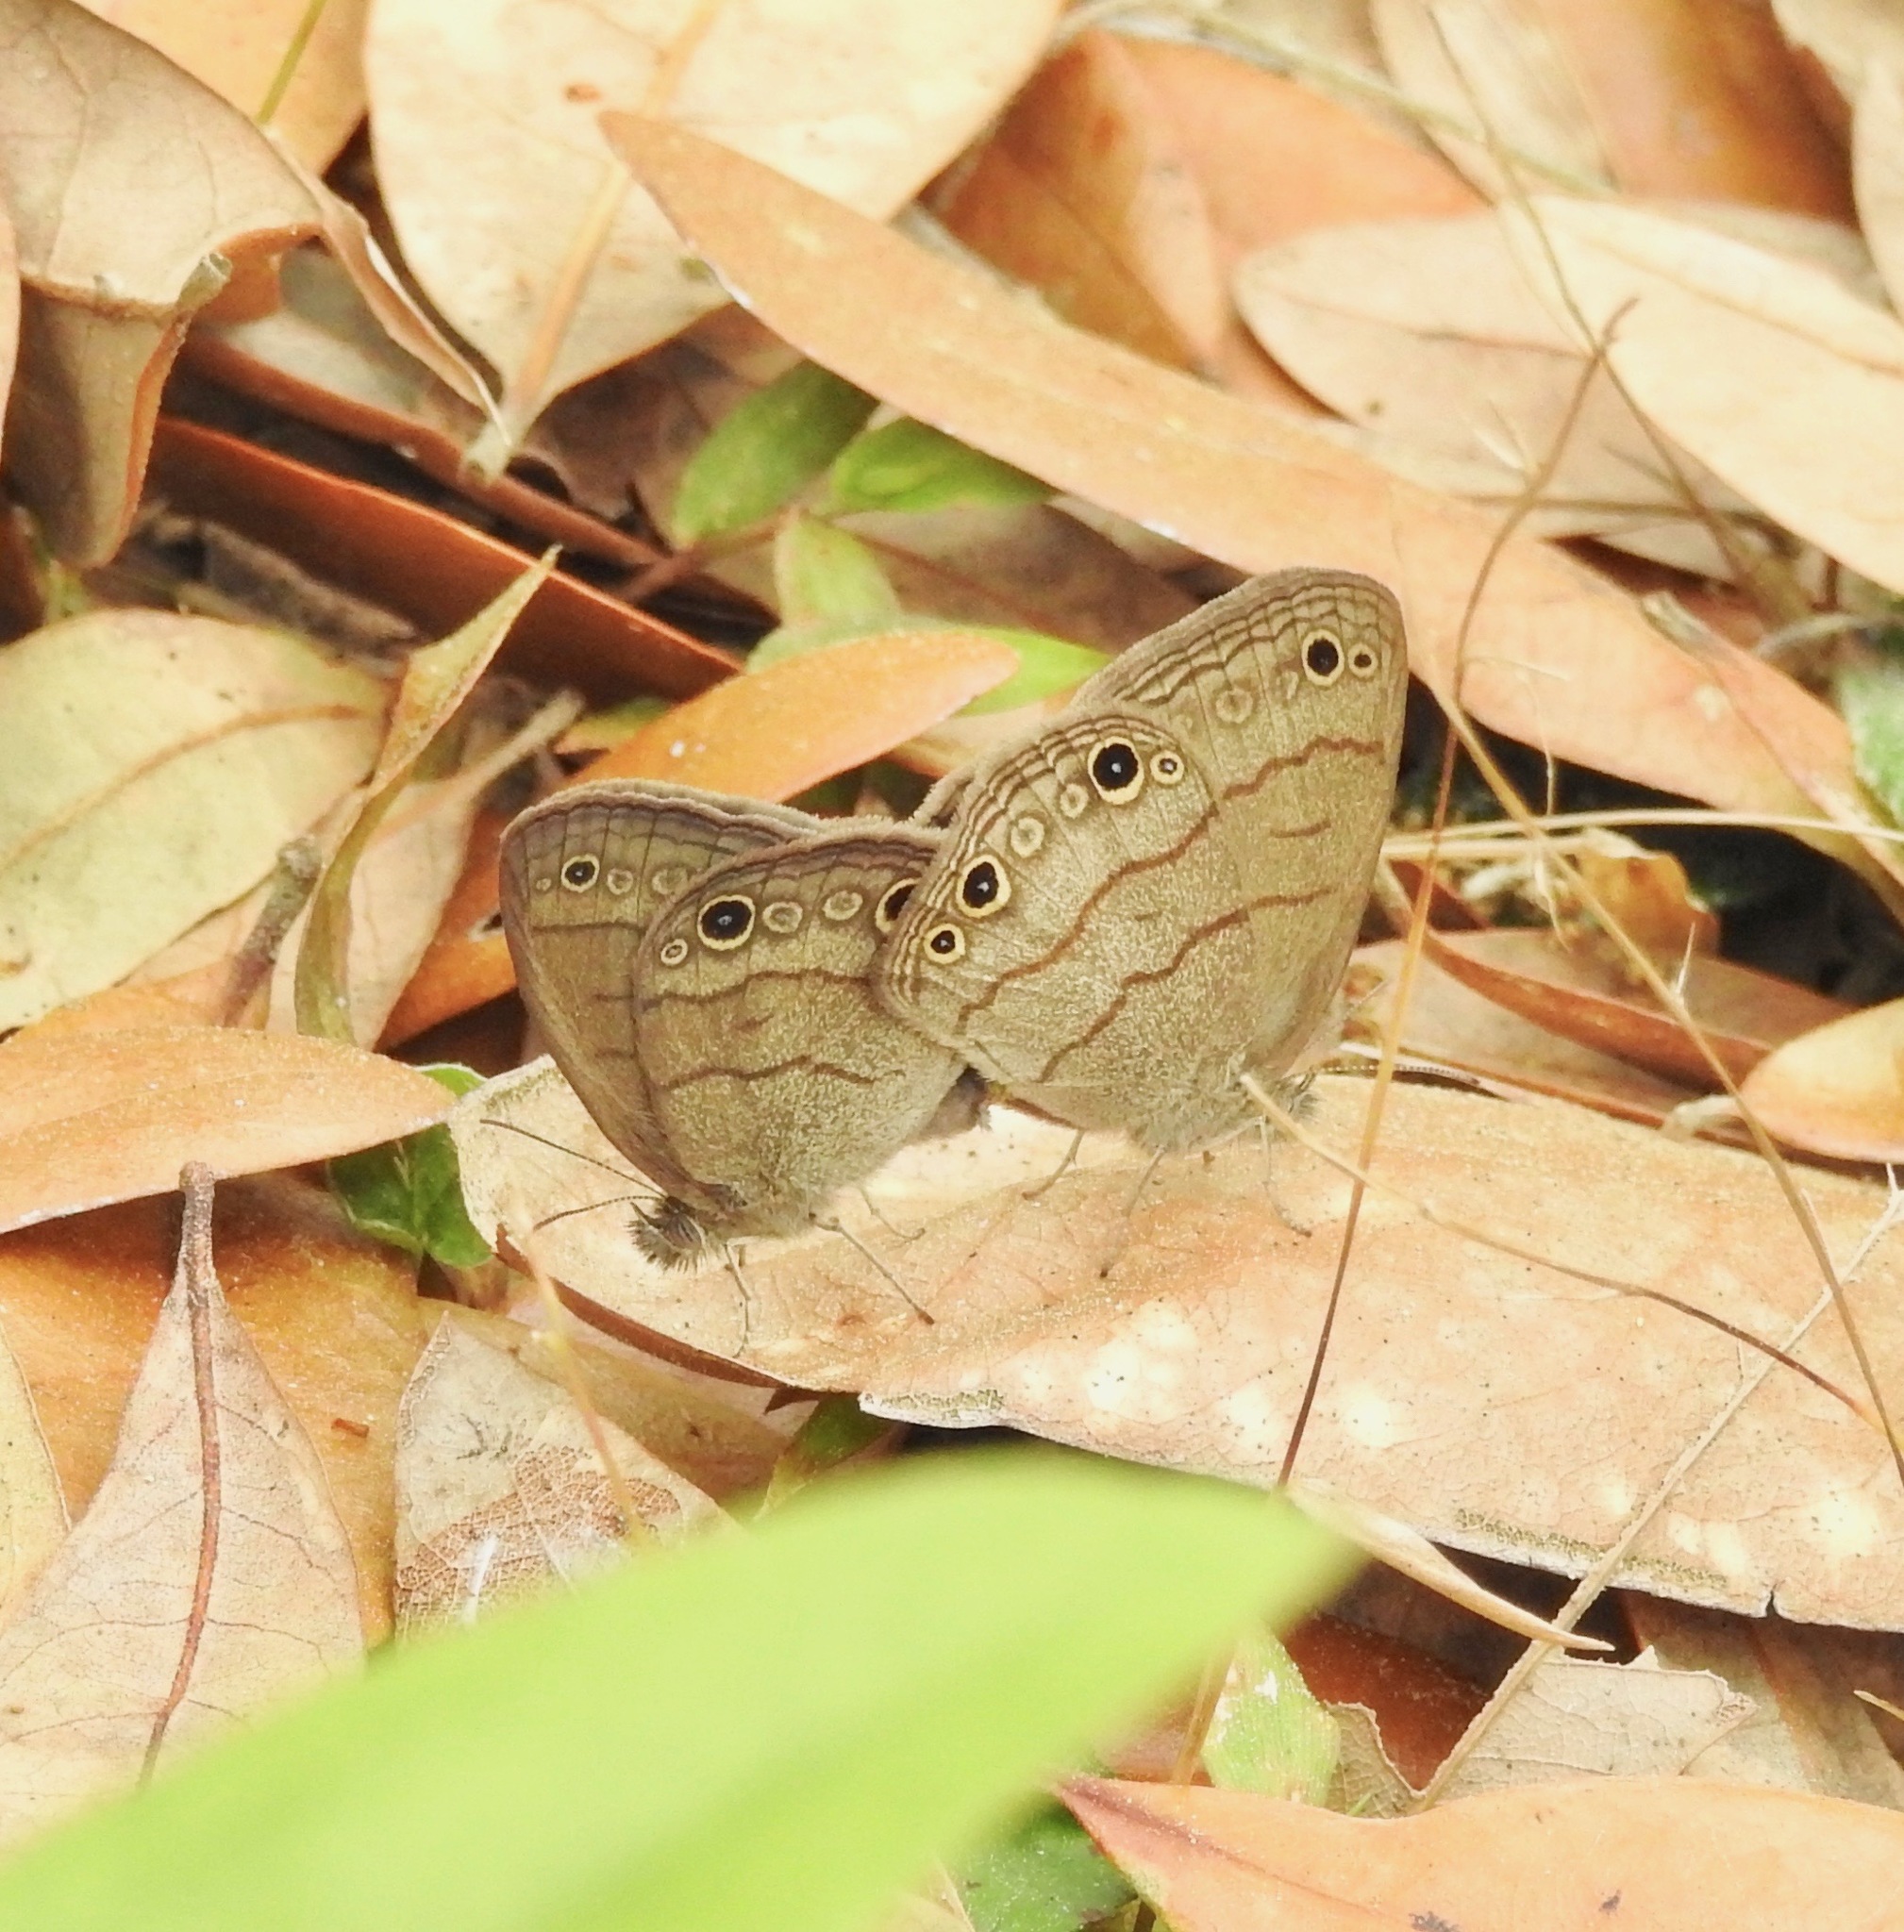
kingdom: Animalia
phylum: Arthropoda
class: Insecta
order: Lepidoptera
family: Nymphalidae
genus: Hermeuptychia
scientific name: Hermeuptychia hermes
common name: Hermes satyr
